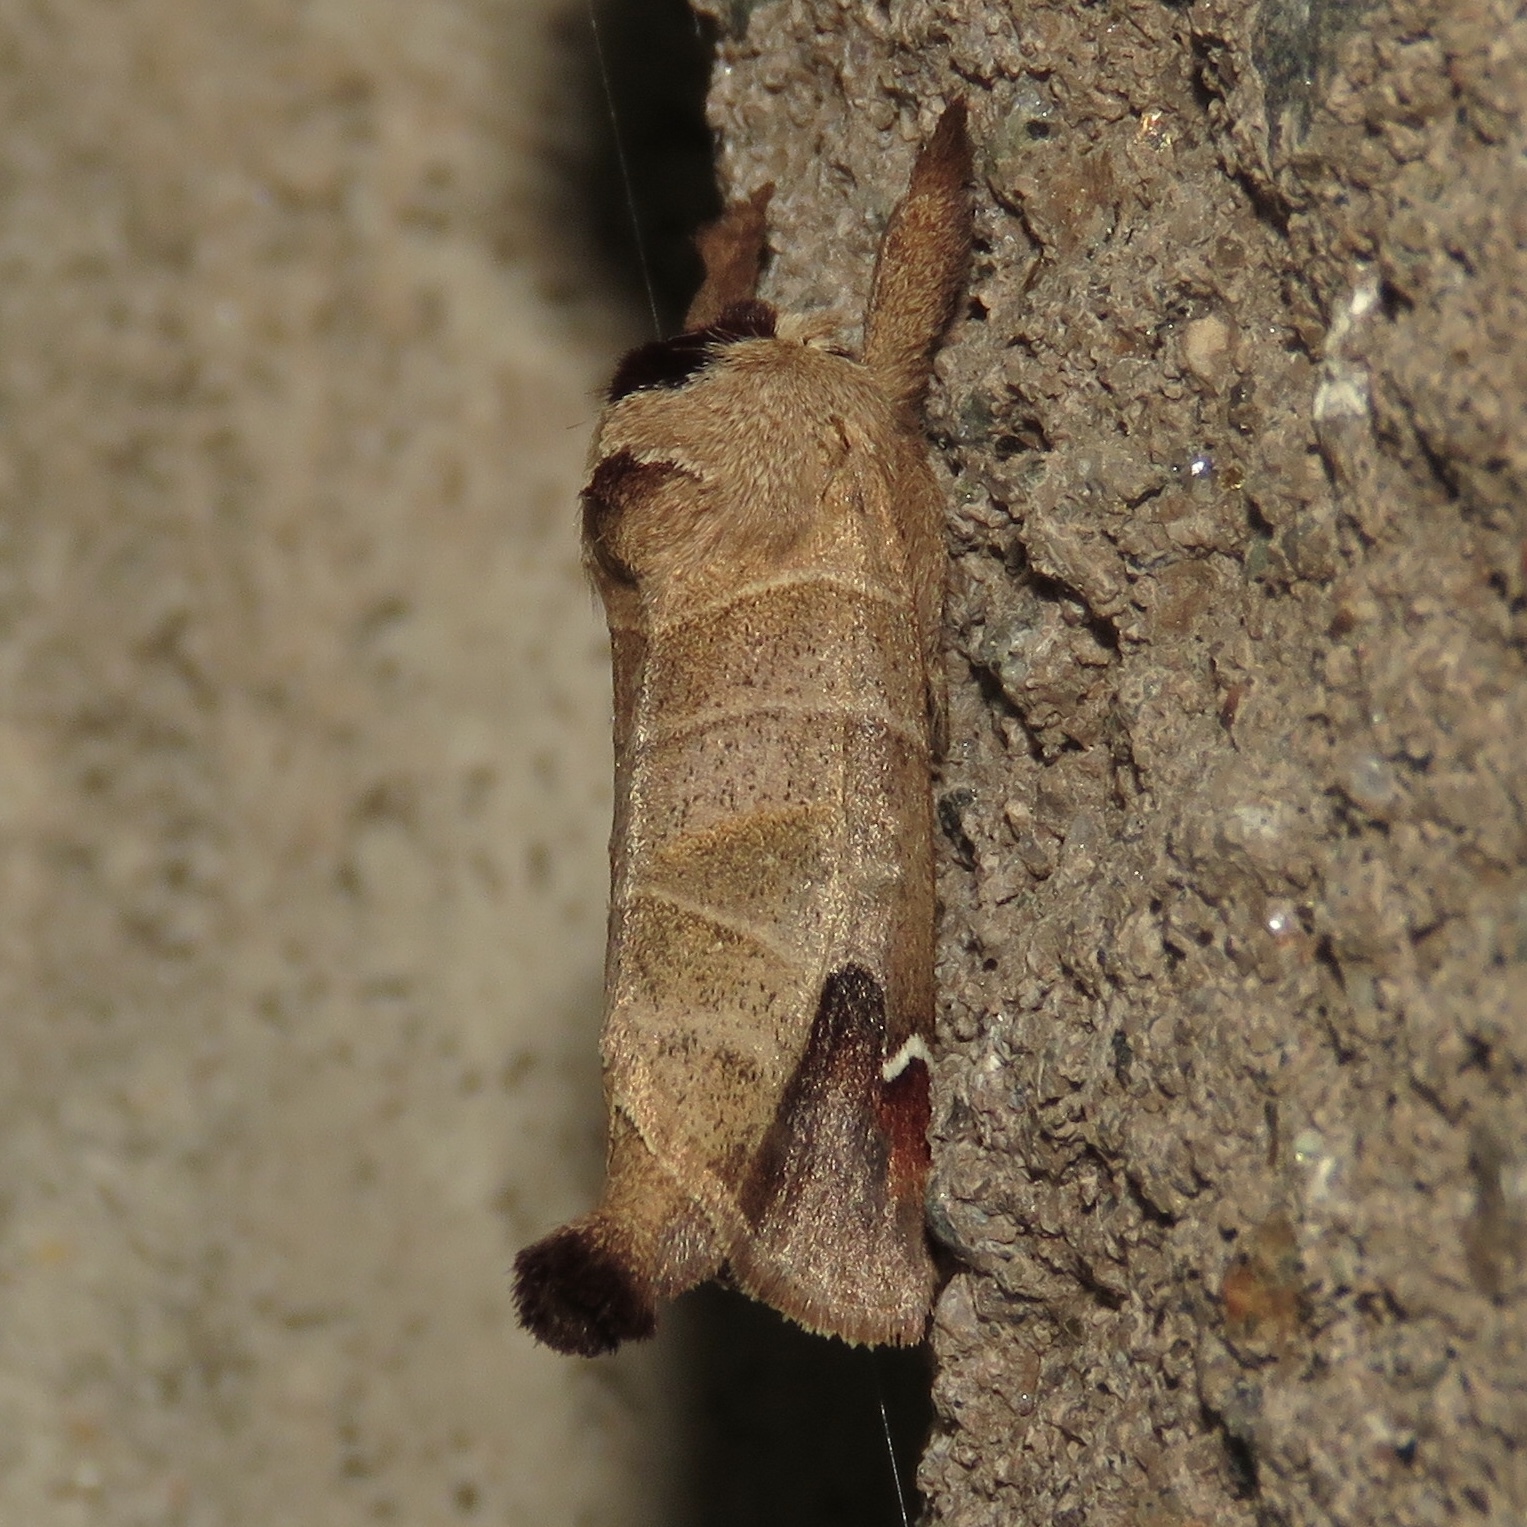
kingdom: Animalia
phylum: Arthropoda
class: Insecta
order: Lepidoptera
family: Notodontidae
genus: Clostera
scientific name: Clostera albosigma
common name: Sigmoid prominent
